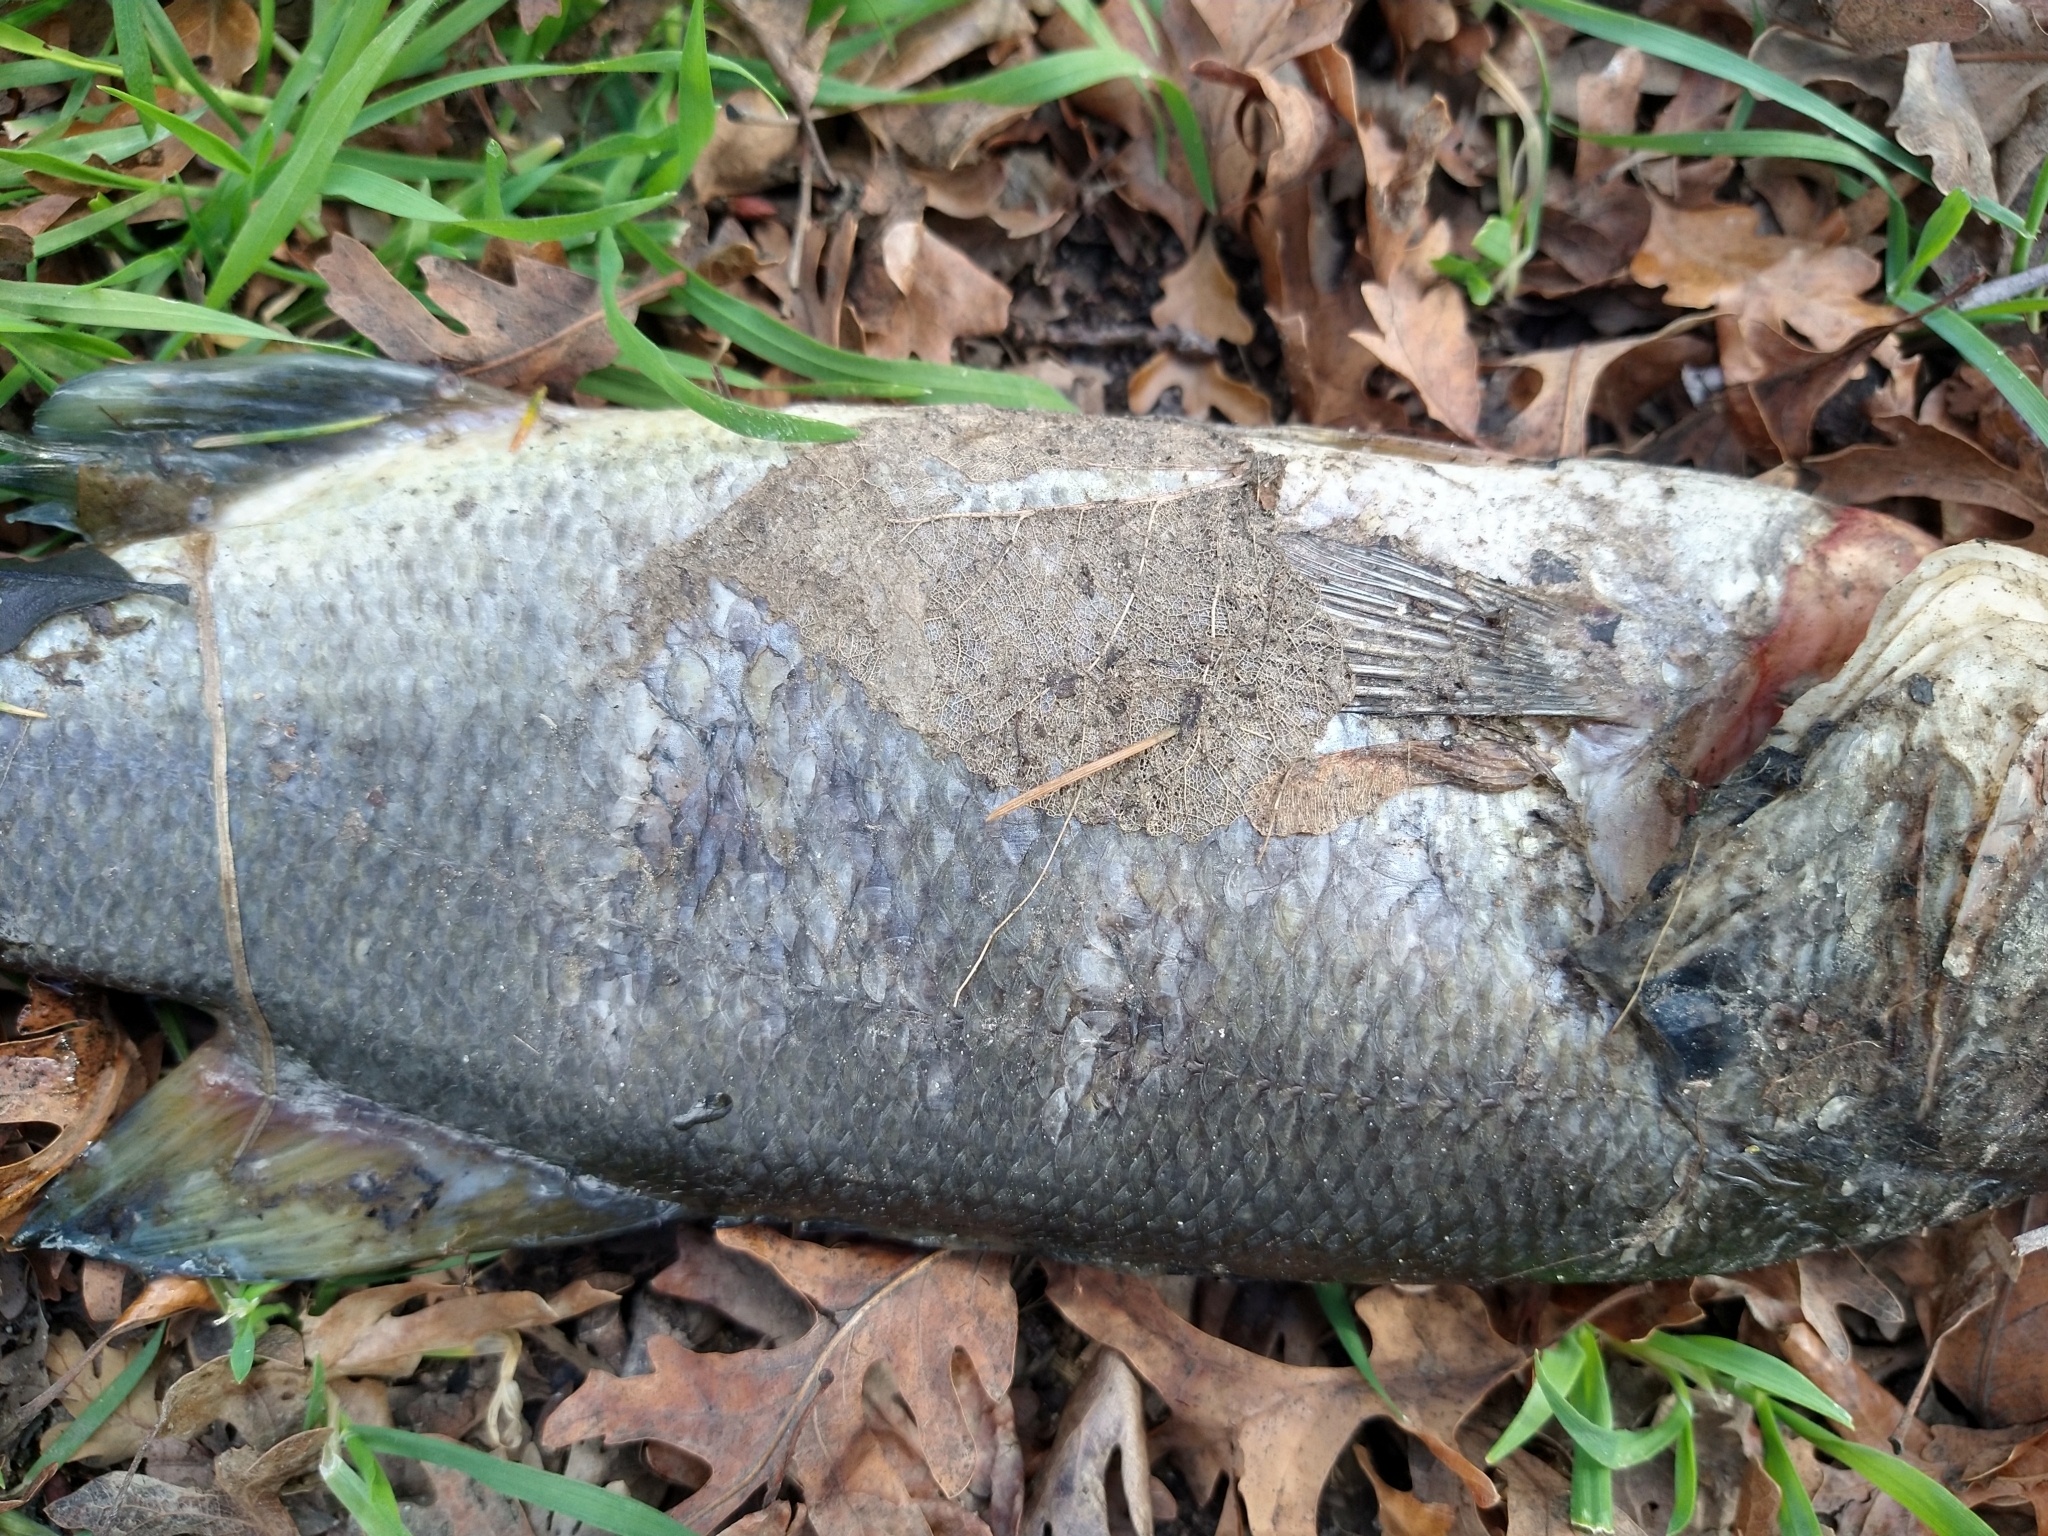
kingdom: Animalia
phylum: Chordata
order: Perciformes
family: Centrarchidae
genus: Micropterus
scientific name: Micropterus
